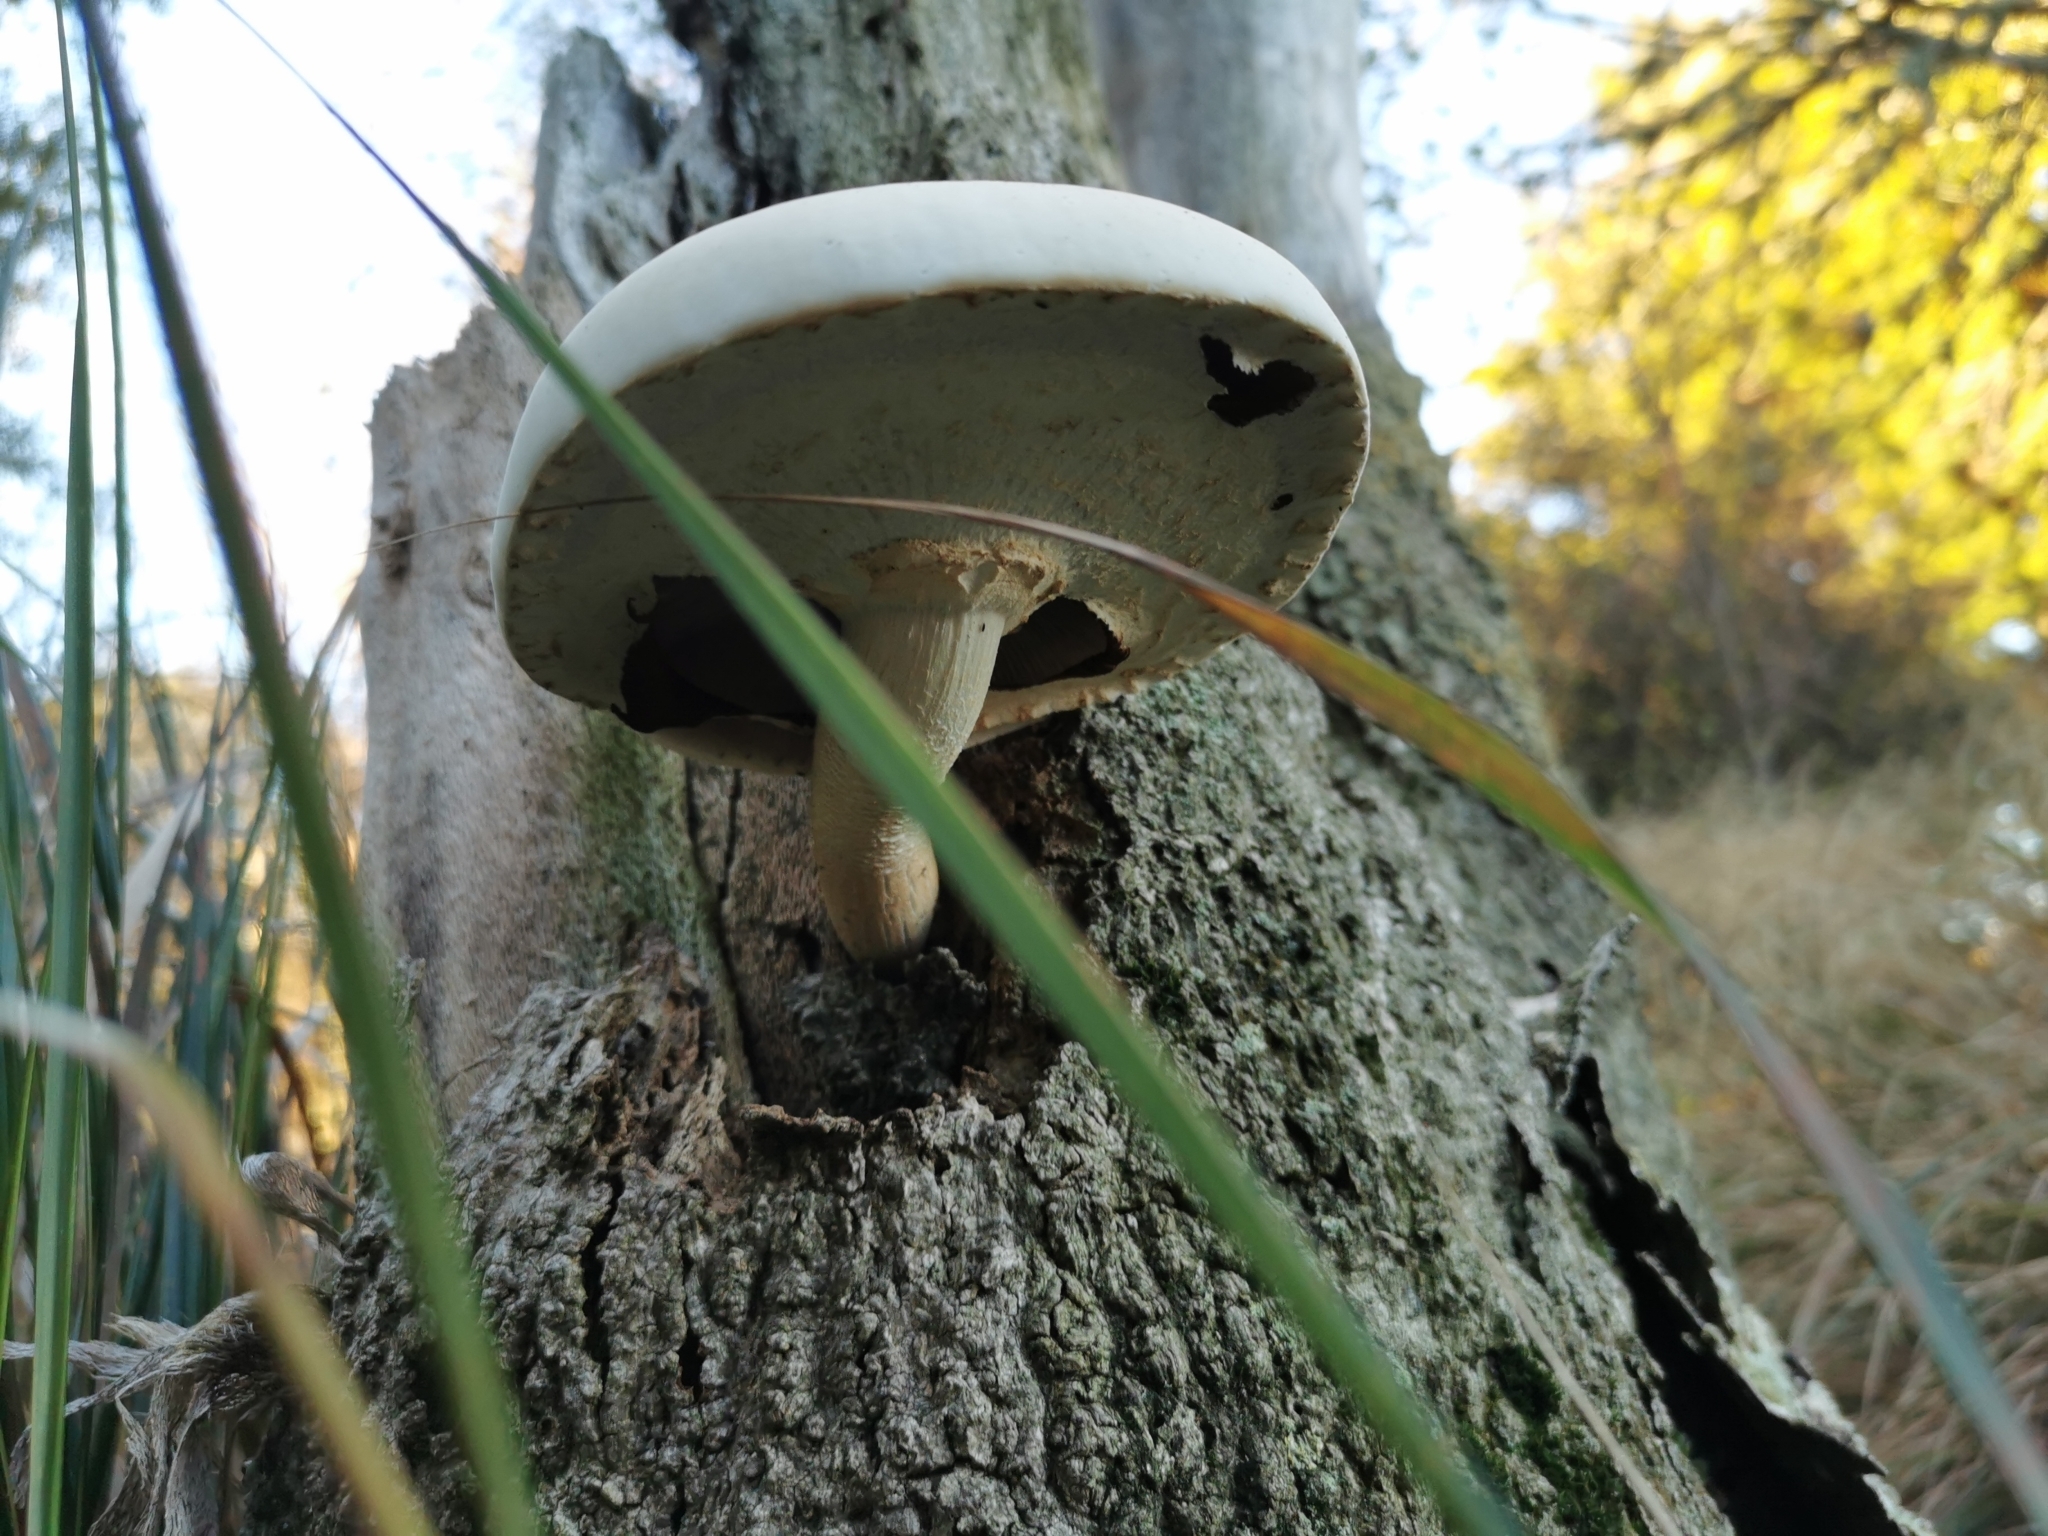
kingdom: Fungi
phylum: Basidiomycota
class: Agaricomycetes
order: Agaricales
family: Tubariaceae
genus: Cyclocybe
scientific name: Cyclocybe parasitica
